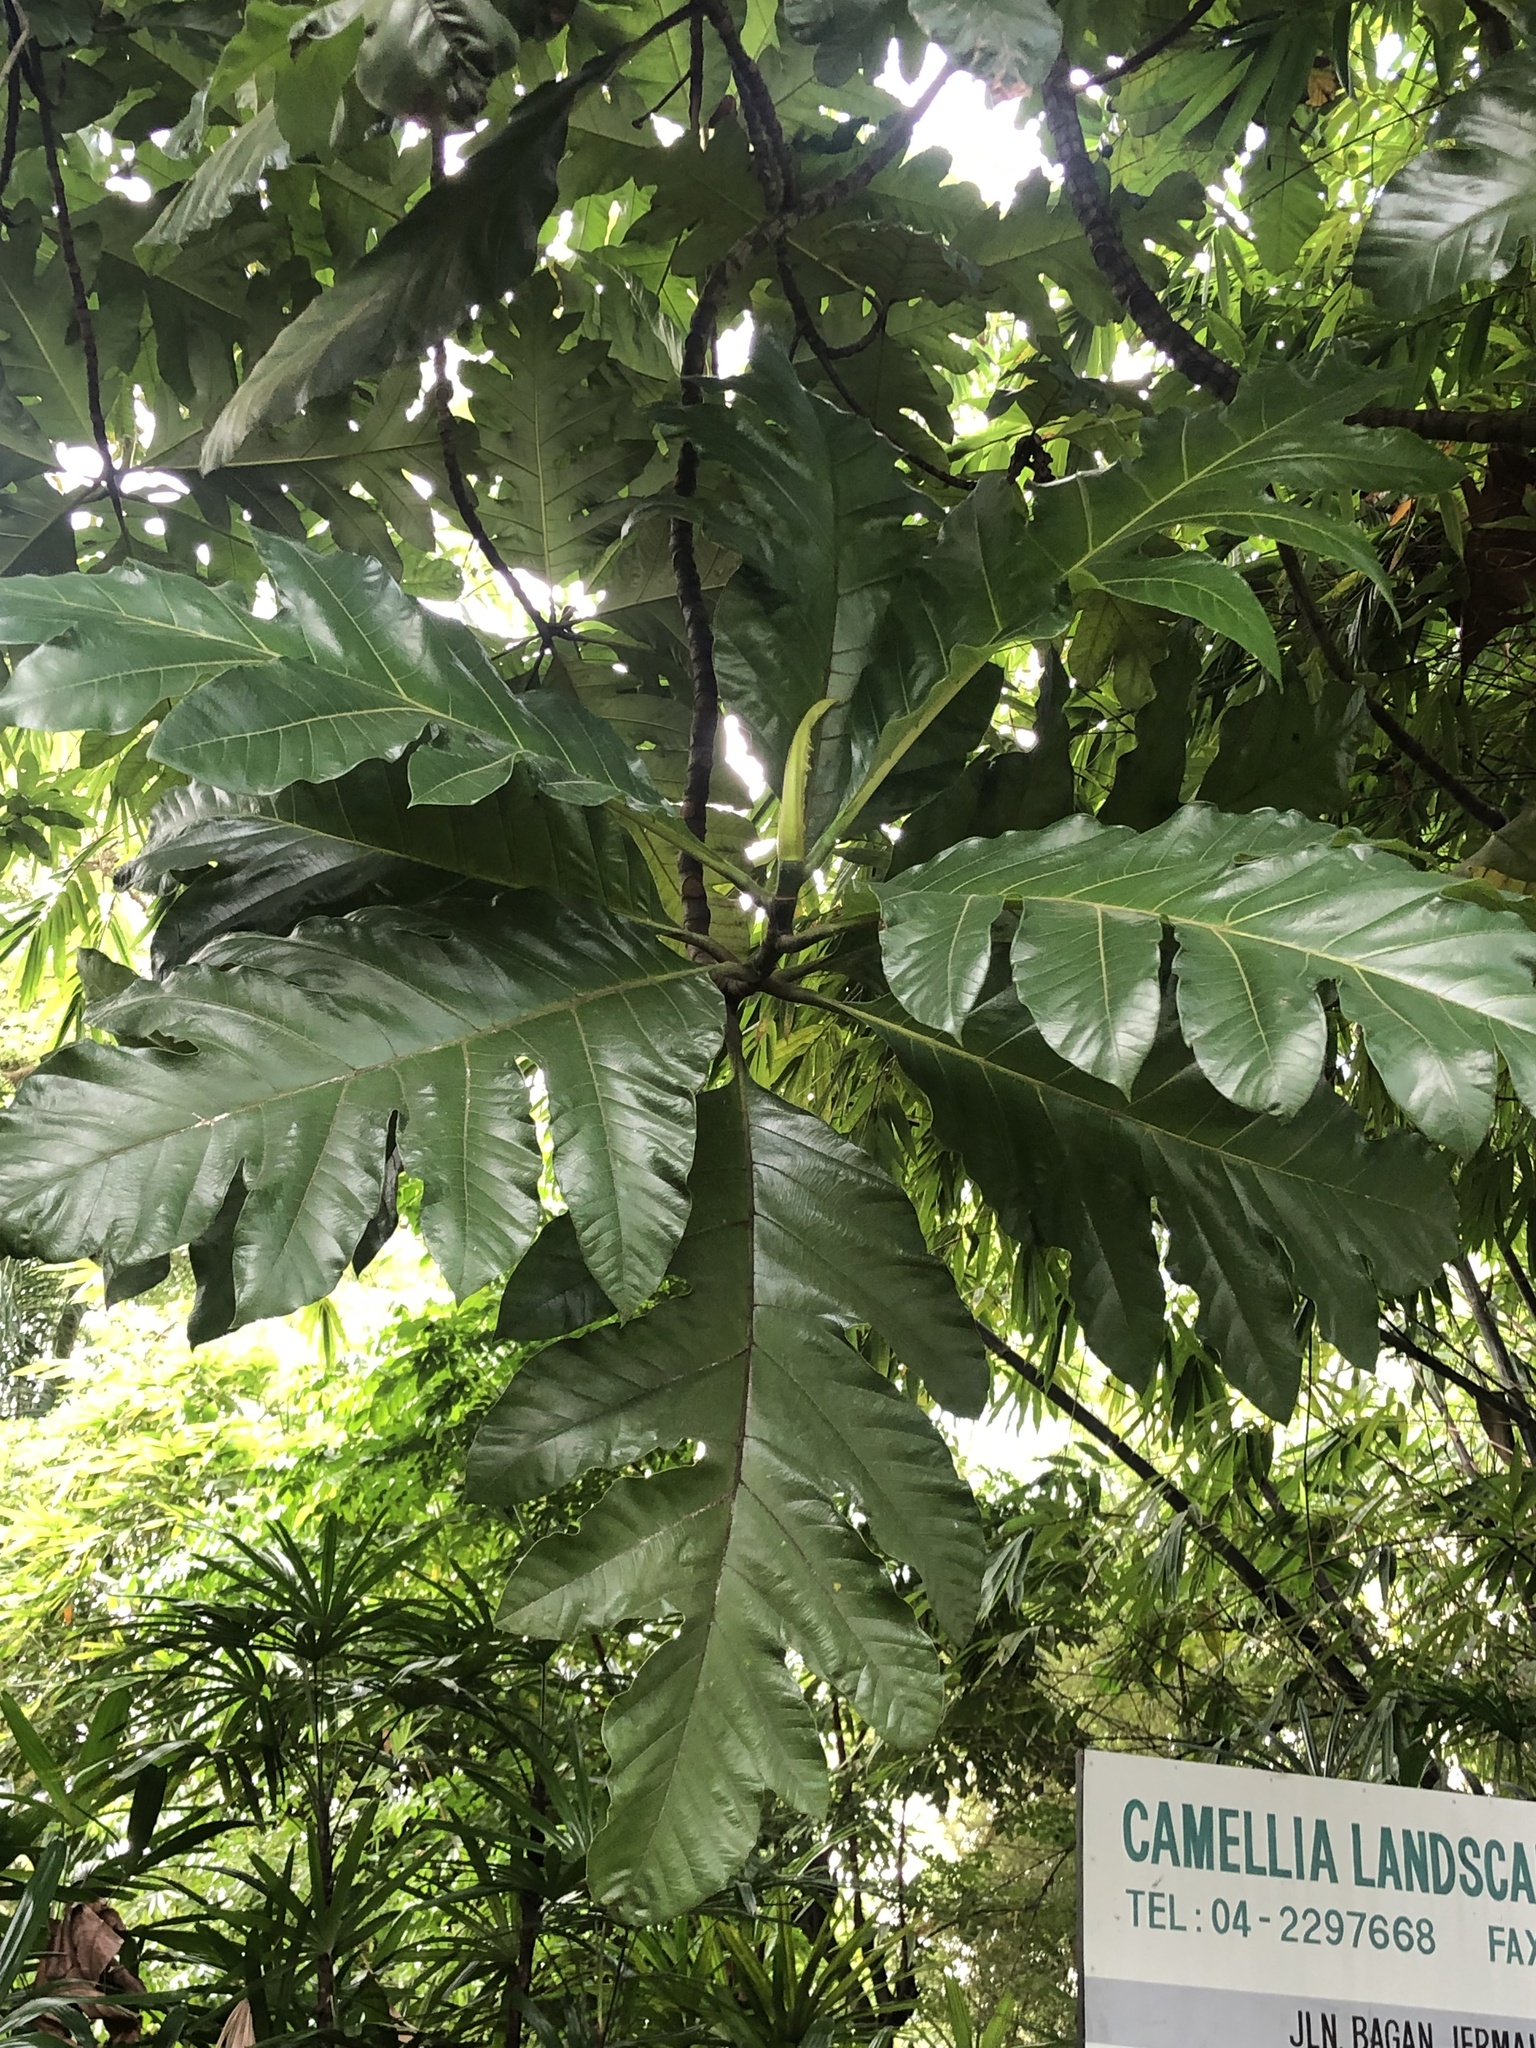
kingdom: Plantae
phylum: Tracheophyta
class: Magnoliopsida
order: Rosales
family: Moraceae
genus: Artocarpus
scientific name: Artocarpus altilis
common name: Breadfruit
